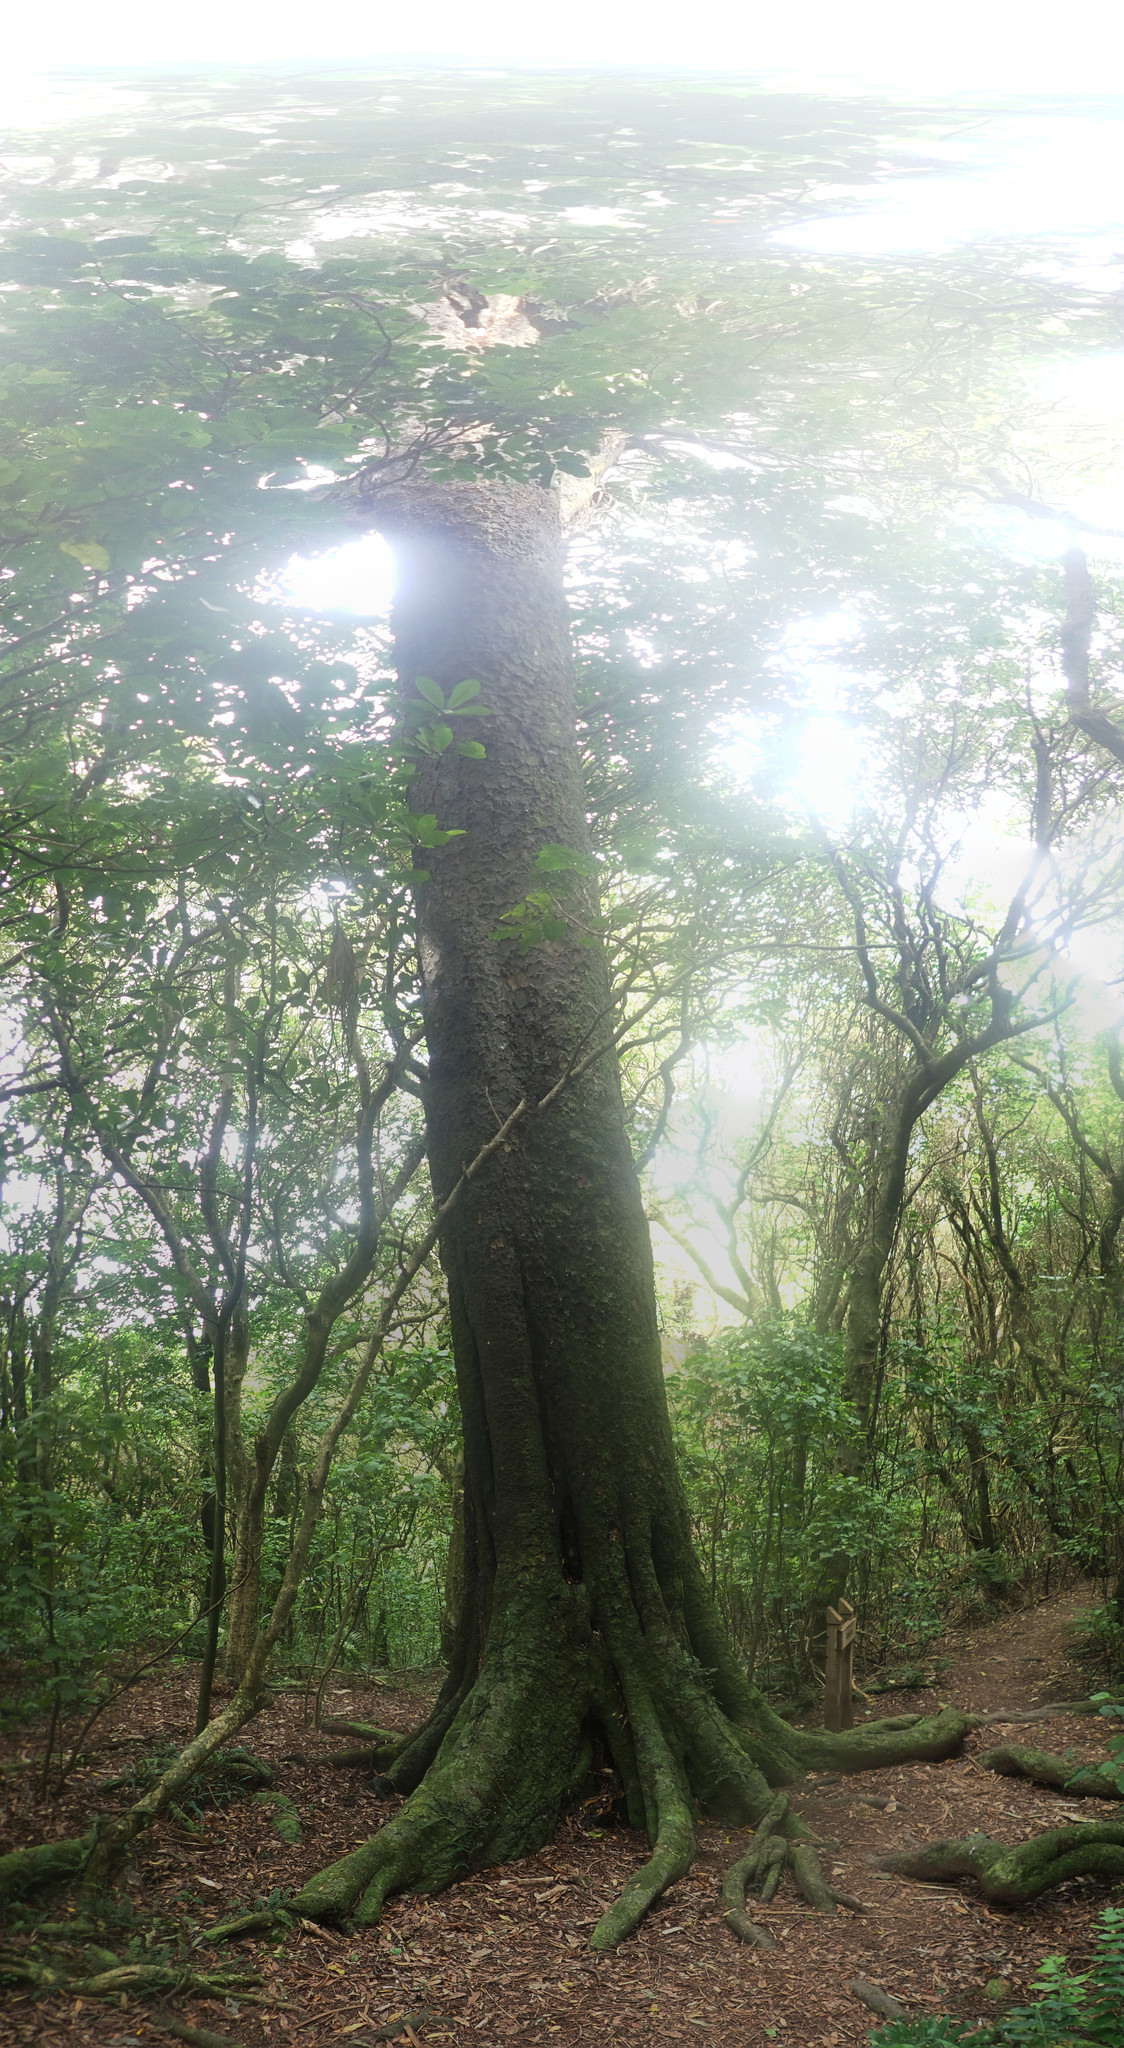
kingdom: Plantae
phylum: Tracheophyta
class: Pinopsida
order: Pinales
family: Podocarpaceae
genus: Dacrycarpus
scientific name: Dacrycarpus dacrydioides
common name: White pine
